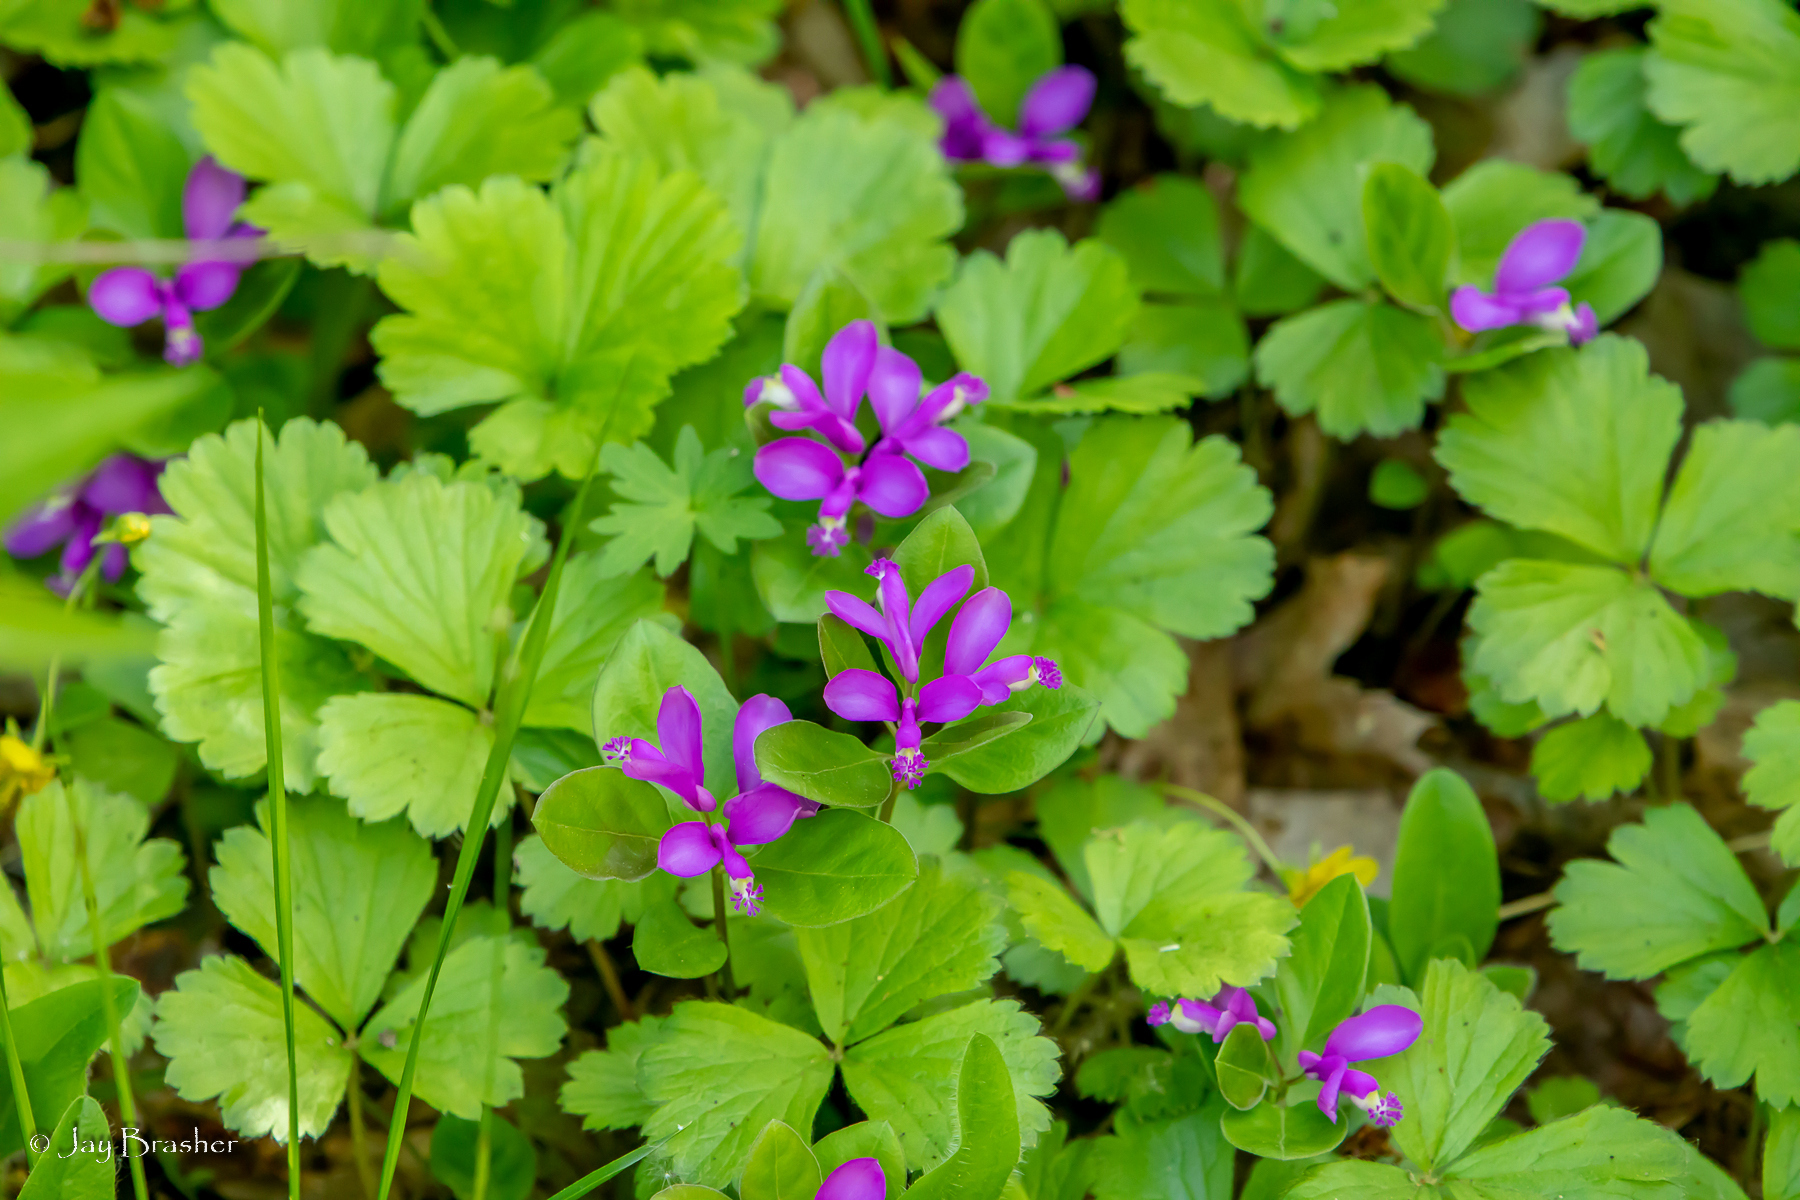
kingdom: Plantae
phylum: Tracheophyta
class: Magnoliopsida
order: Fabales
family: Polygalaceae
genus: Polygaloides
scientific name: Polygaloides paucifolia
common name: Bird-on-the-wing
